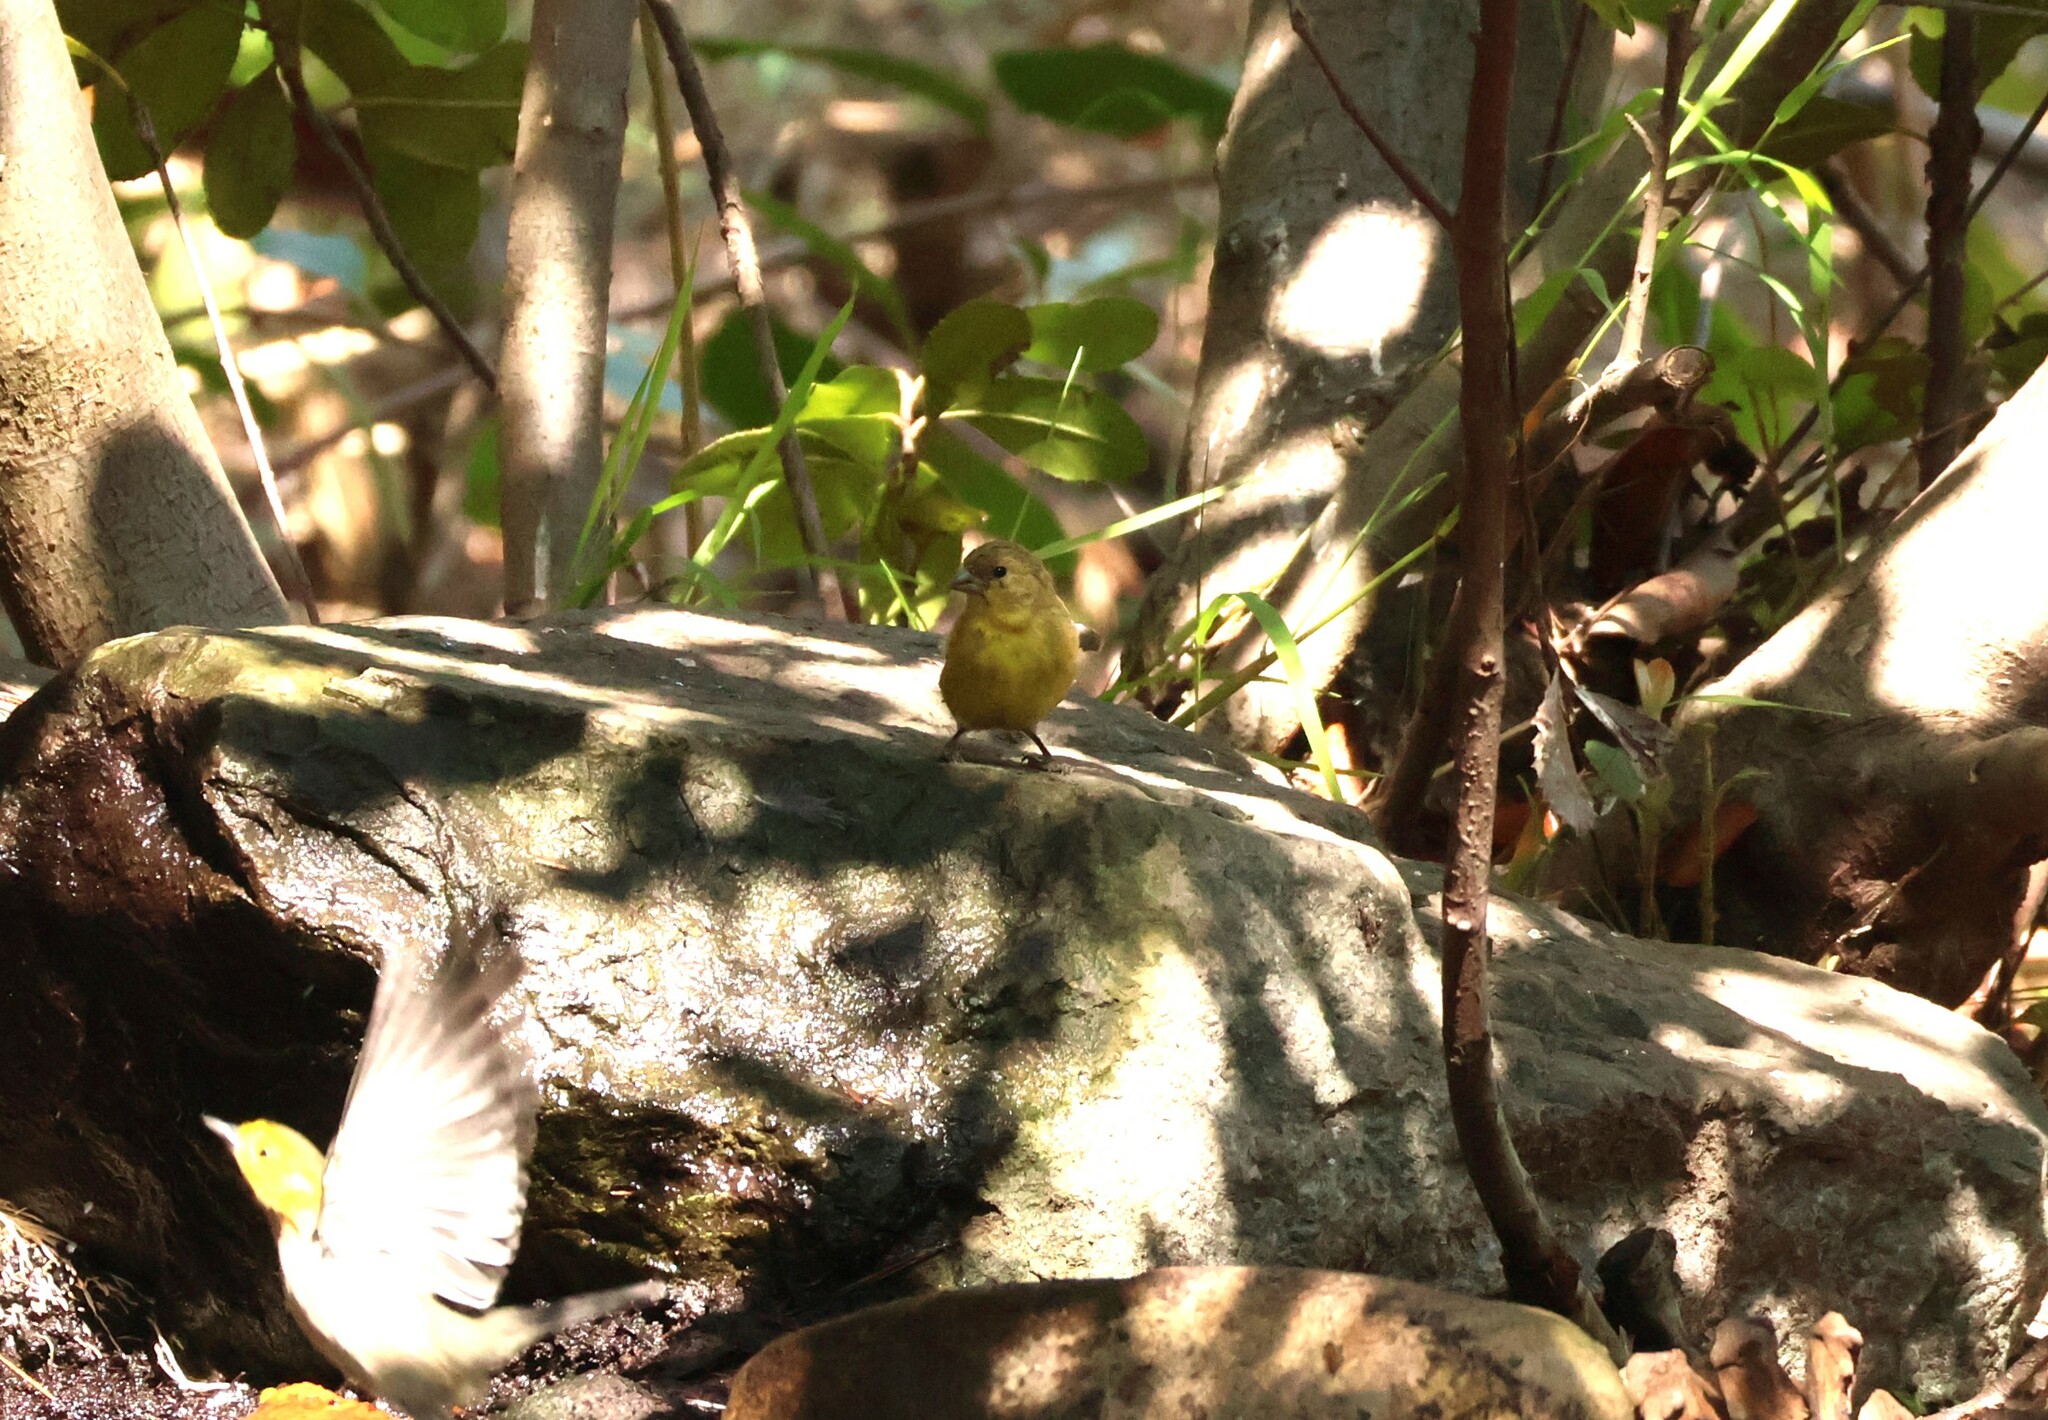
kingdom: Animalia
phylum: Chordata
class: Aves
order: Passeriformes
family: Fringillidae
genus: Spinus
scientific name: Spinus psaltria
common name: Lesser goldfinch
